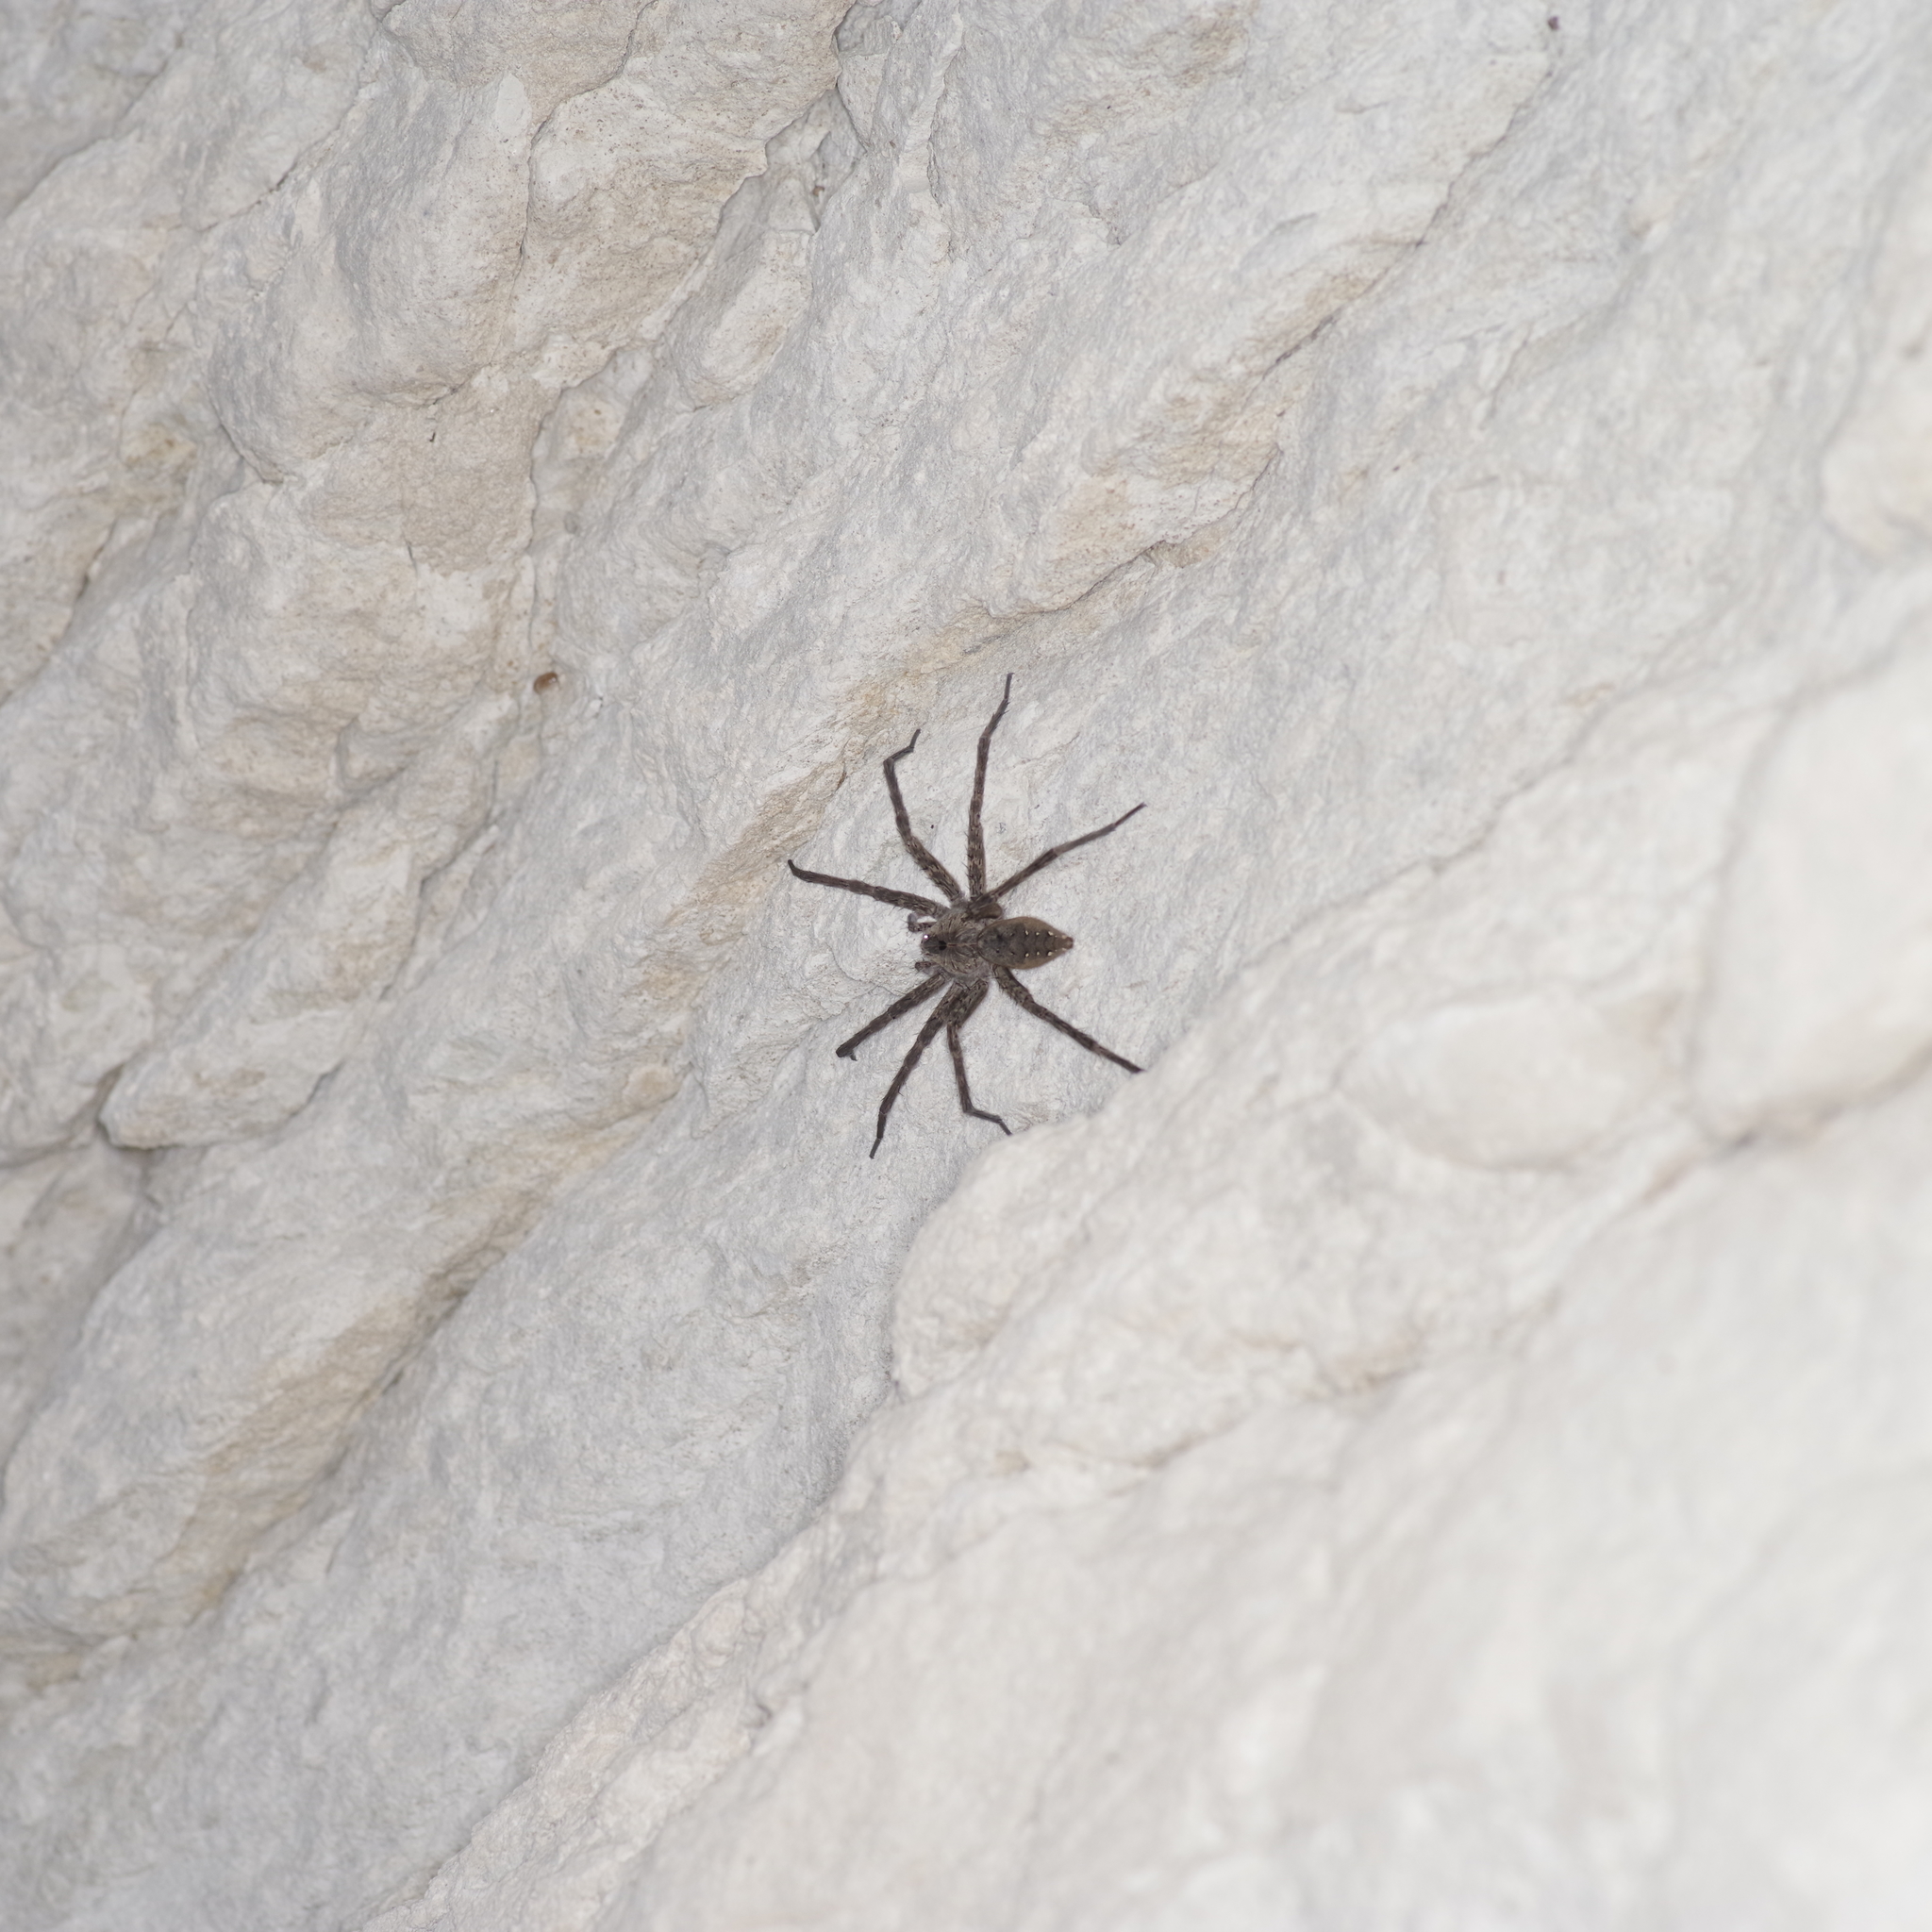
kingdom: Animalia
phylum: Arthropoda
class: Arachnida
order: Araneae
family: Pisauridae
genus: Dolomedes
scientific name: Dolomedes vittatus
